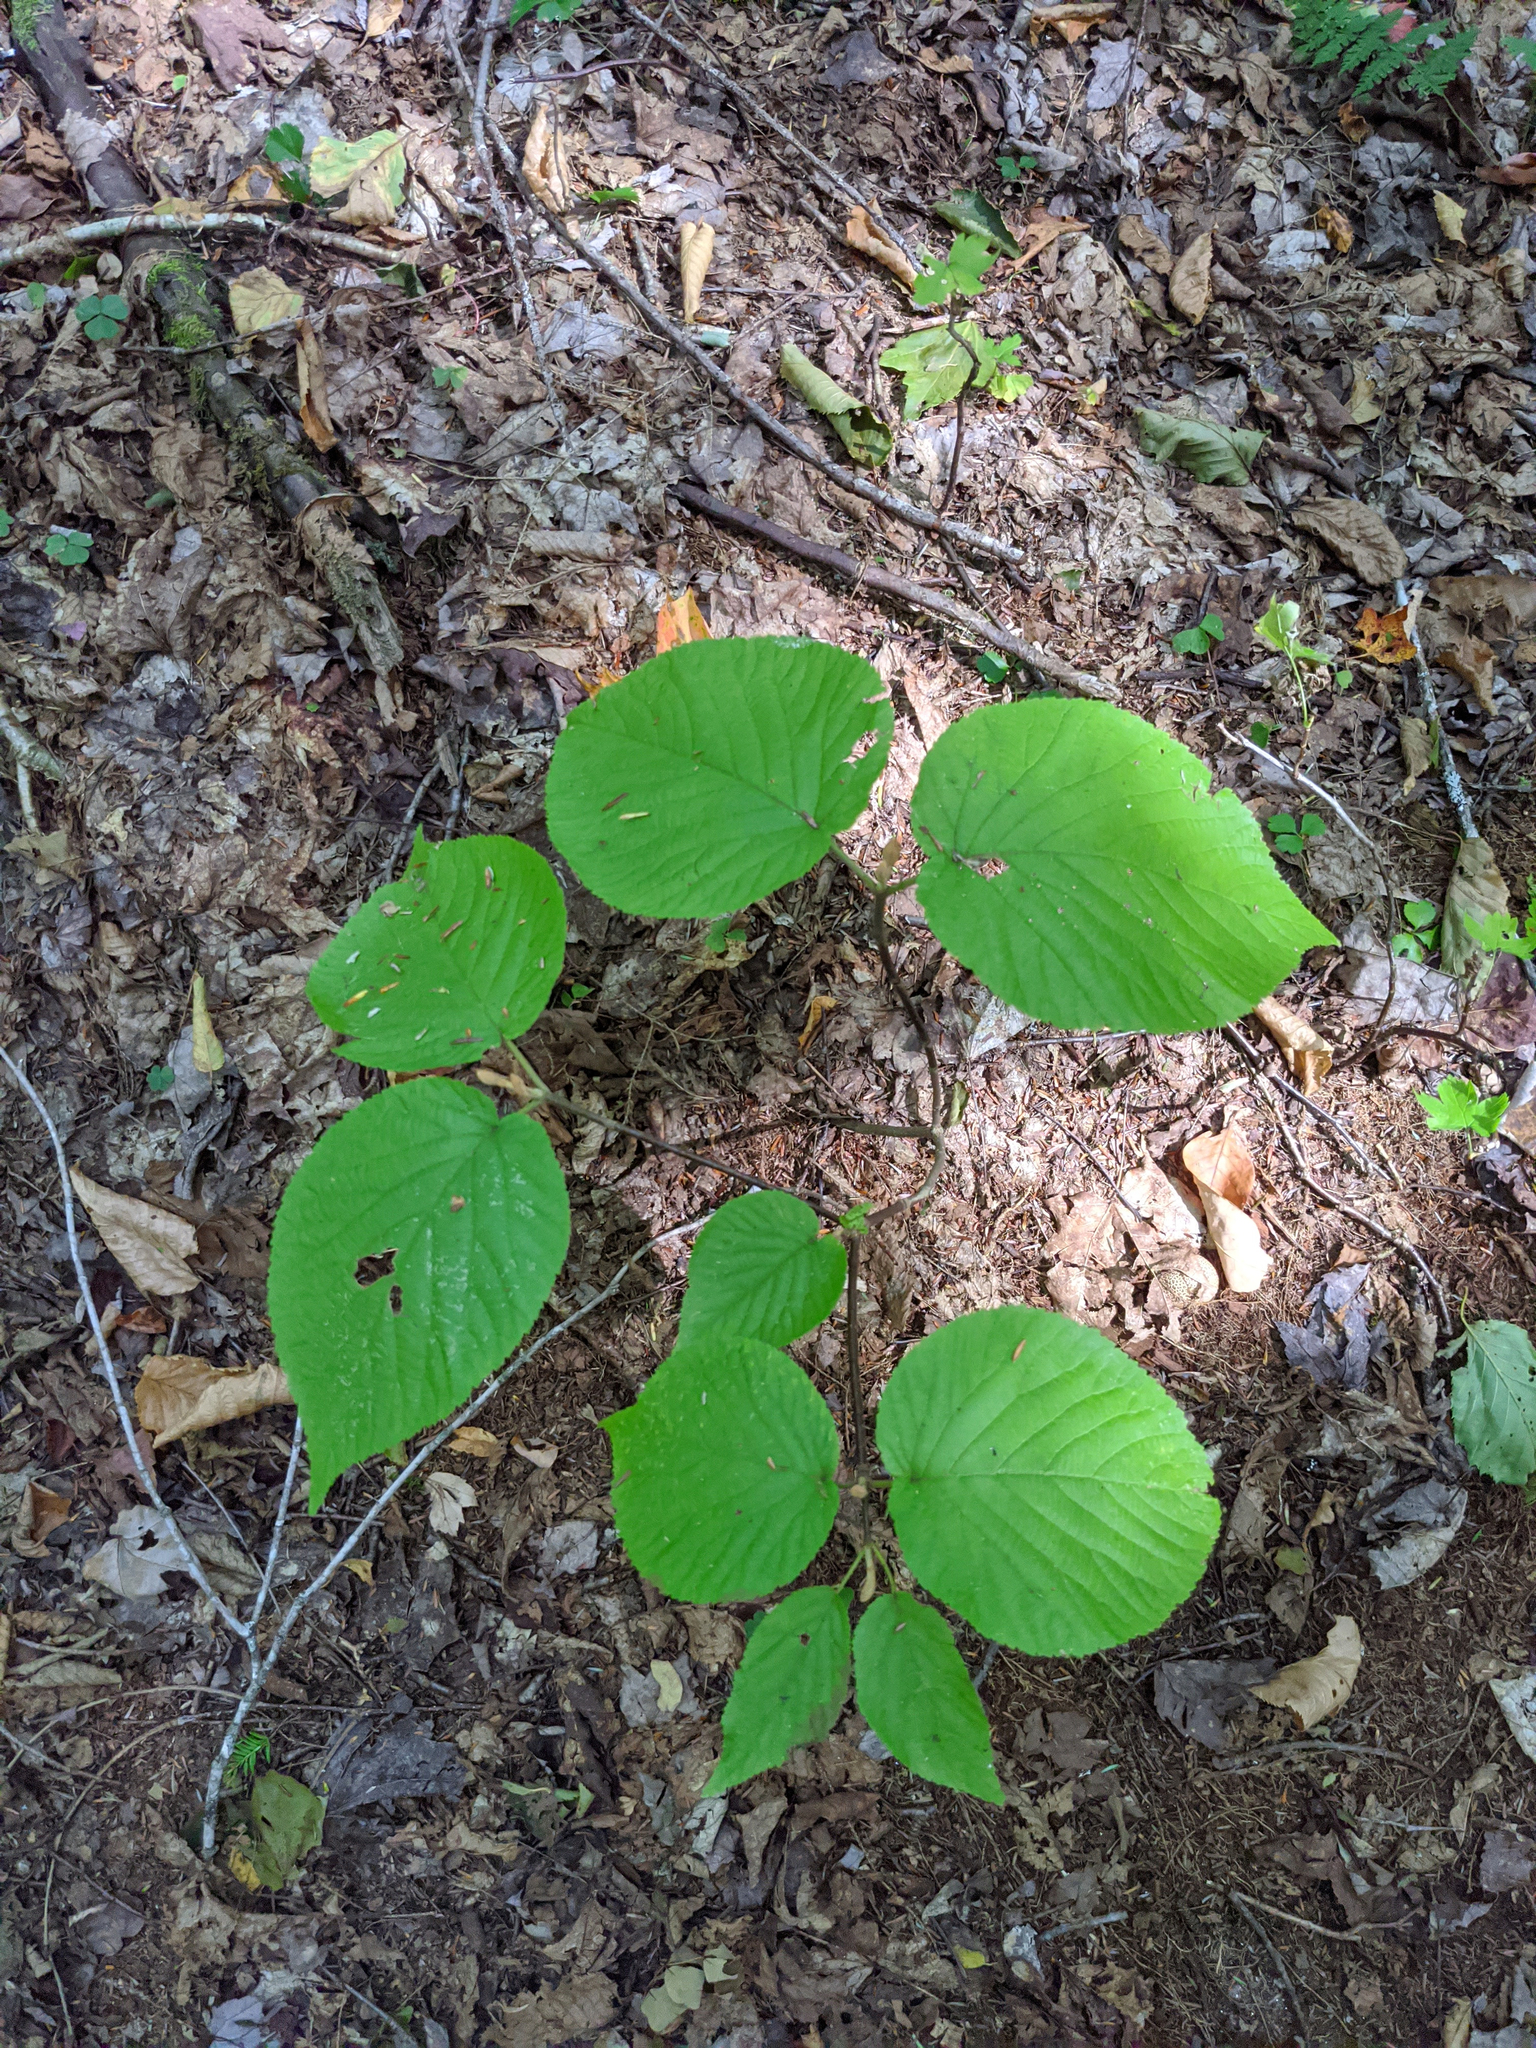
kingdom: Plantae
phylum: Tracheophyta
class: Magnoliopsida
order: Dipsacales
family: Viburnaceae
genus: Viburnum
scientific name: Viburnum lantanoides
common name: Hobblebush
